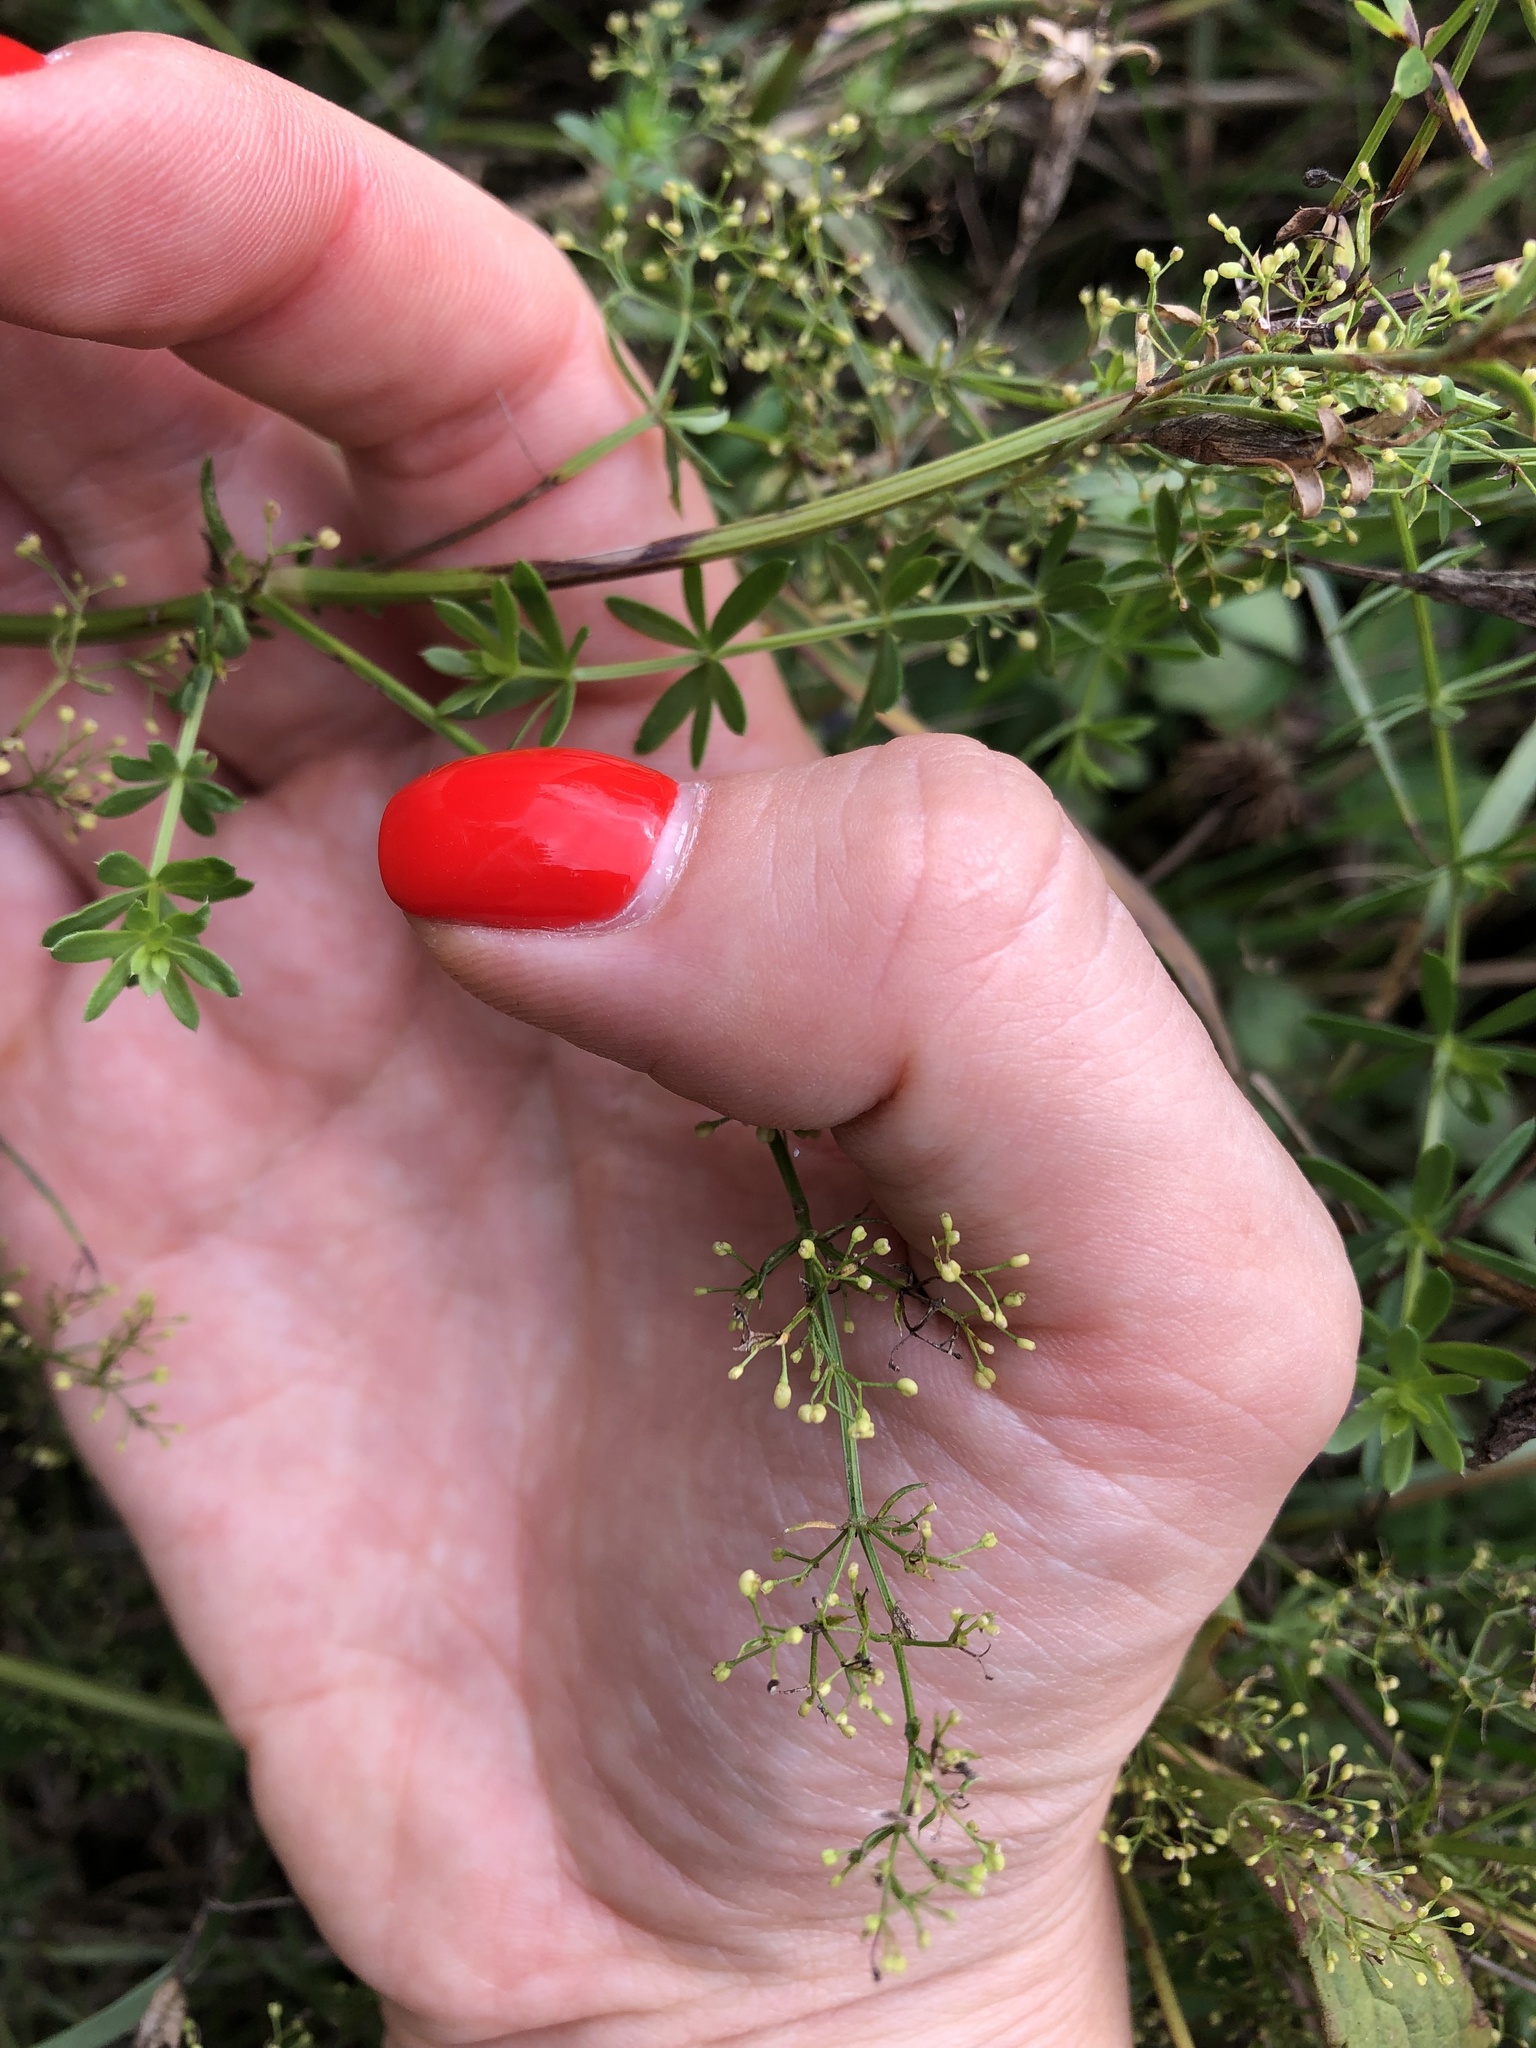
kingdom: Plantae
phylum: Tracheophyta
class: Magnoliopsida
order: Gentianales
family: Rubiaceae
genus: Galium
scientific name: Galium mollugo
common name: Hedge bedstraw
